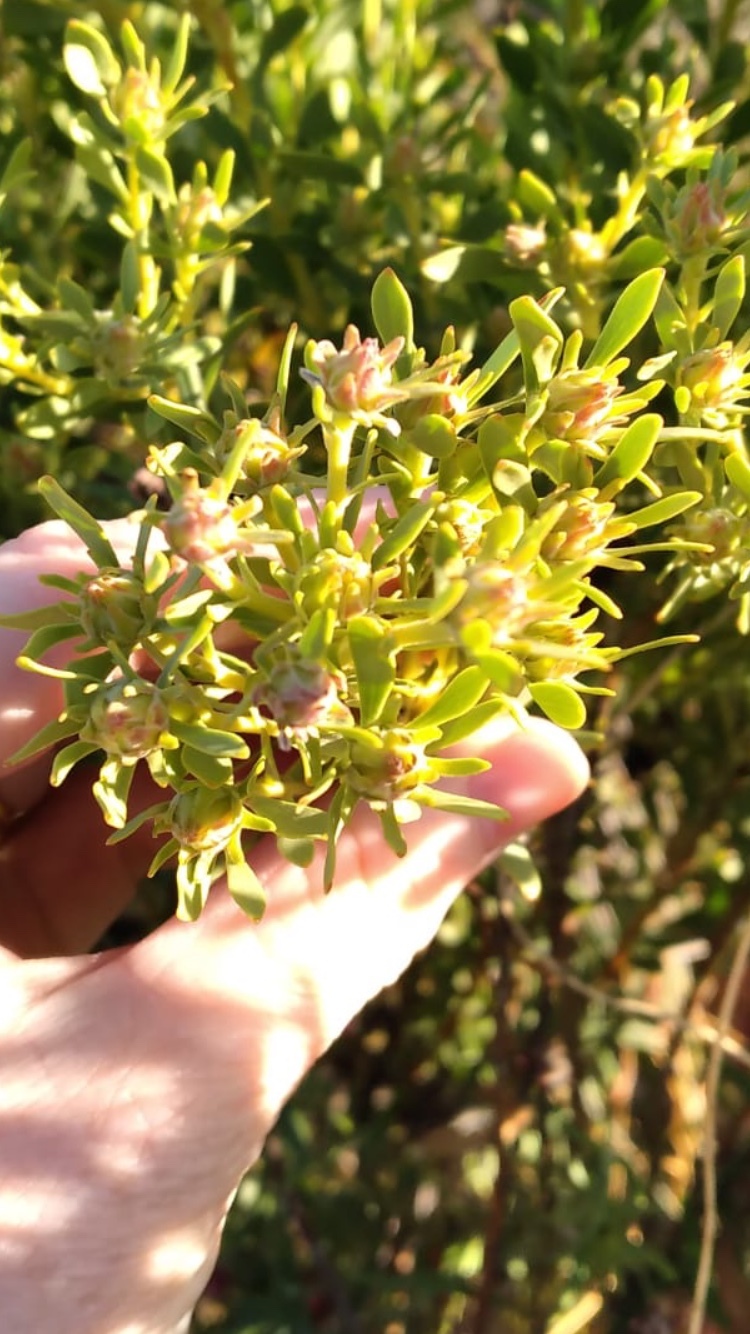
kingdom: Plantae
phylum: Tracheophyta
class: Magnoliopsida
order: Proteales
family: Proteaceae
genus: Leucadendron
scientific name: Leucadendron pubescens
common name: Grey conebush
